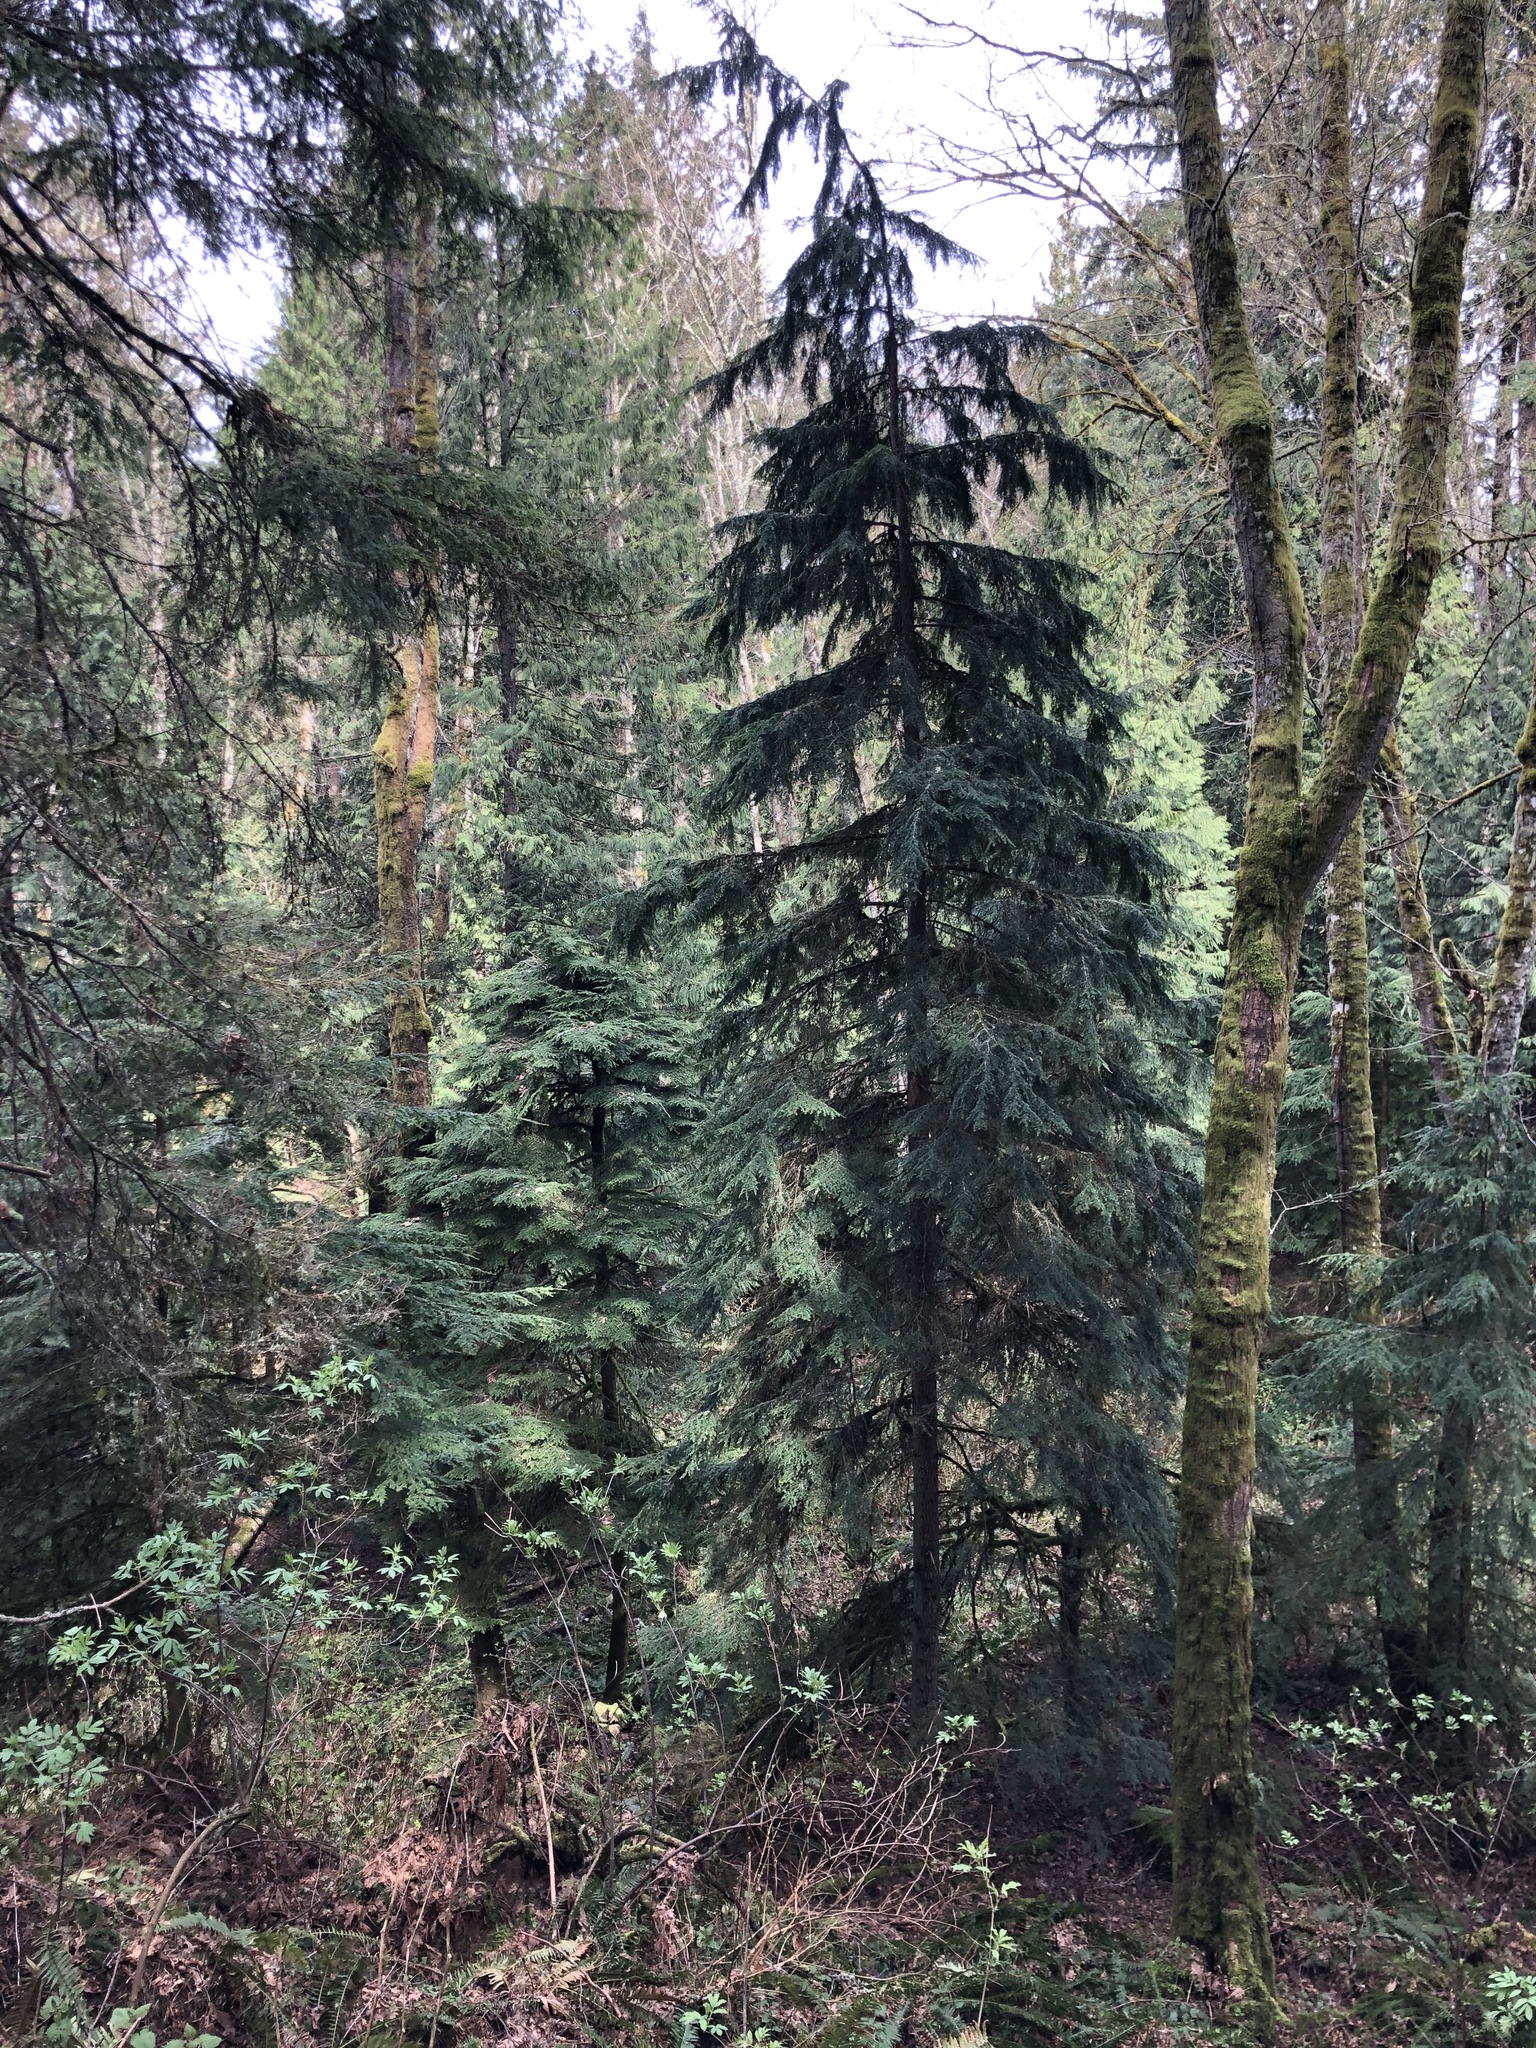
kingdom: Plantae
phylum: Tracheophyta
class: Pinopsida
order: Pinales
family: Pinaceae
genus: Tsuga
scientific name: Tsuga heterophylla
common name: Western hemlock
